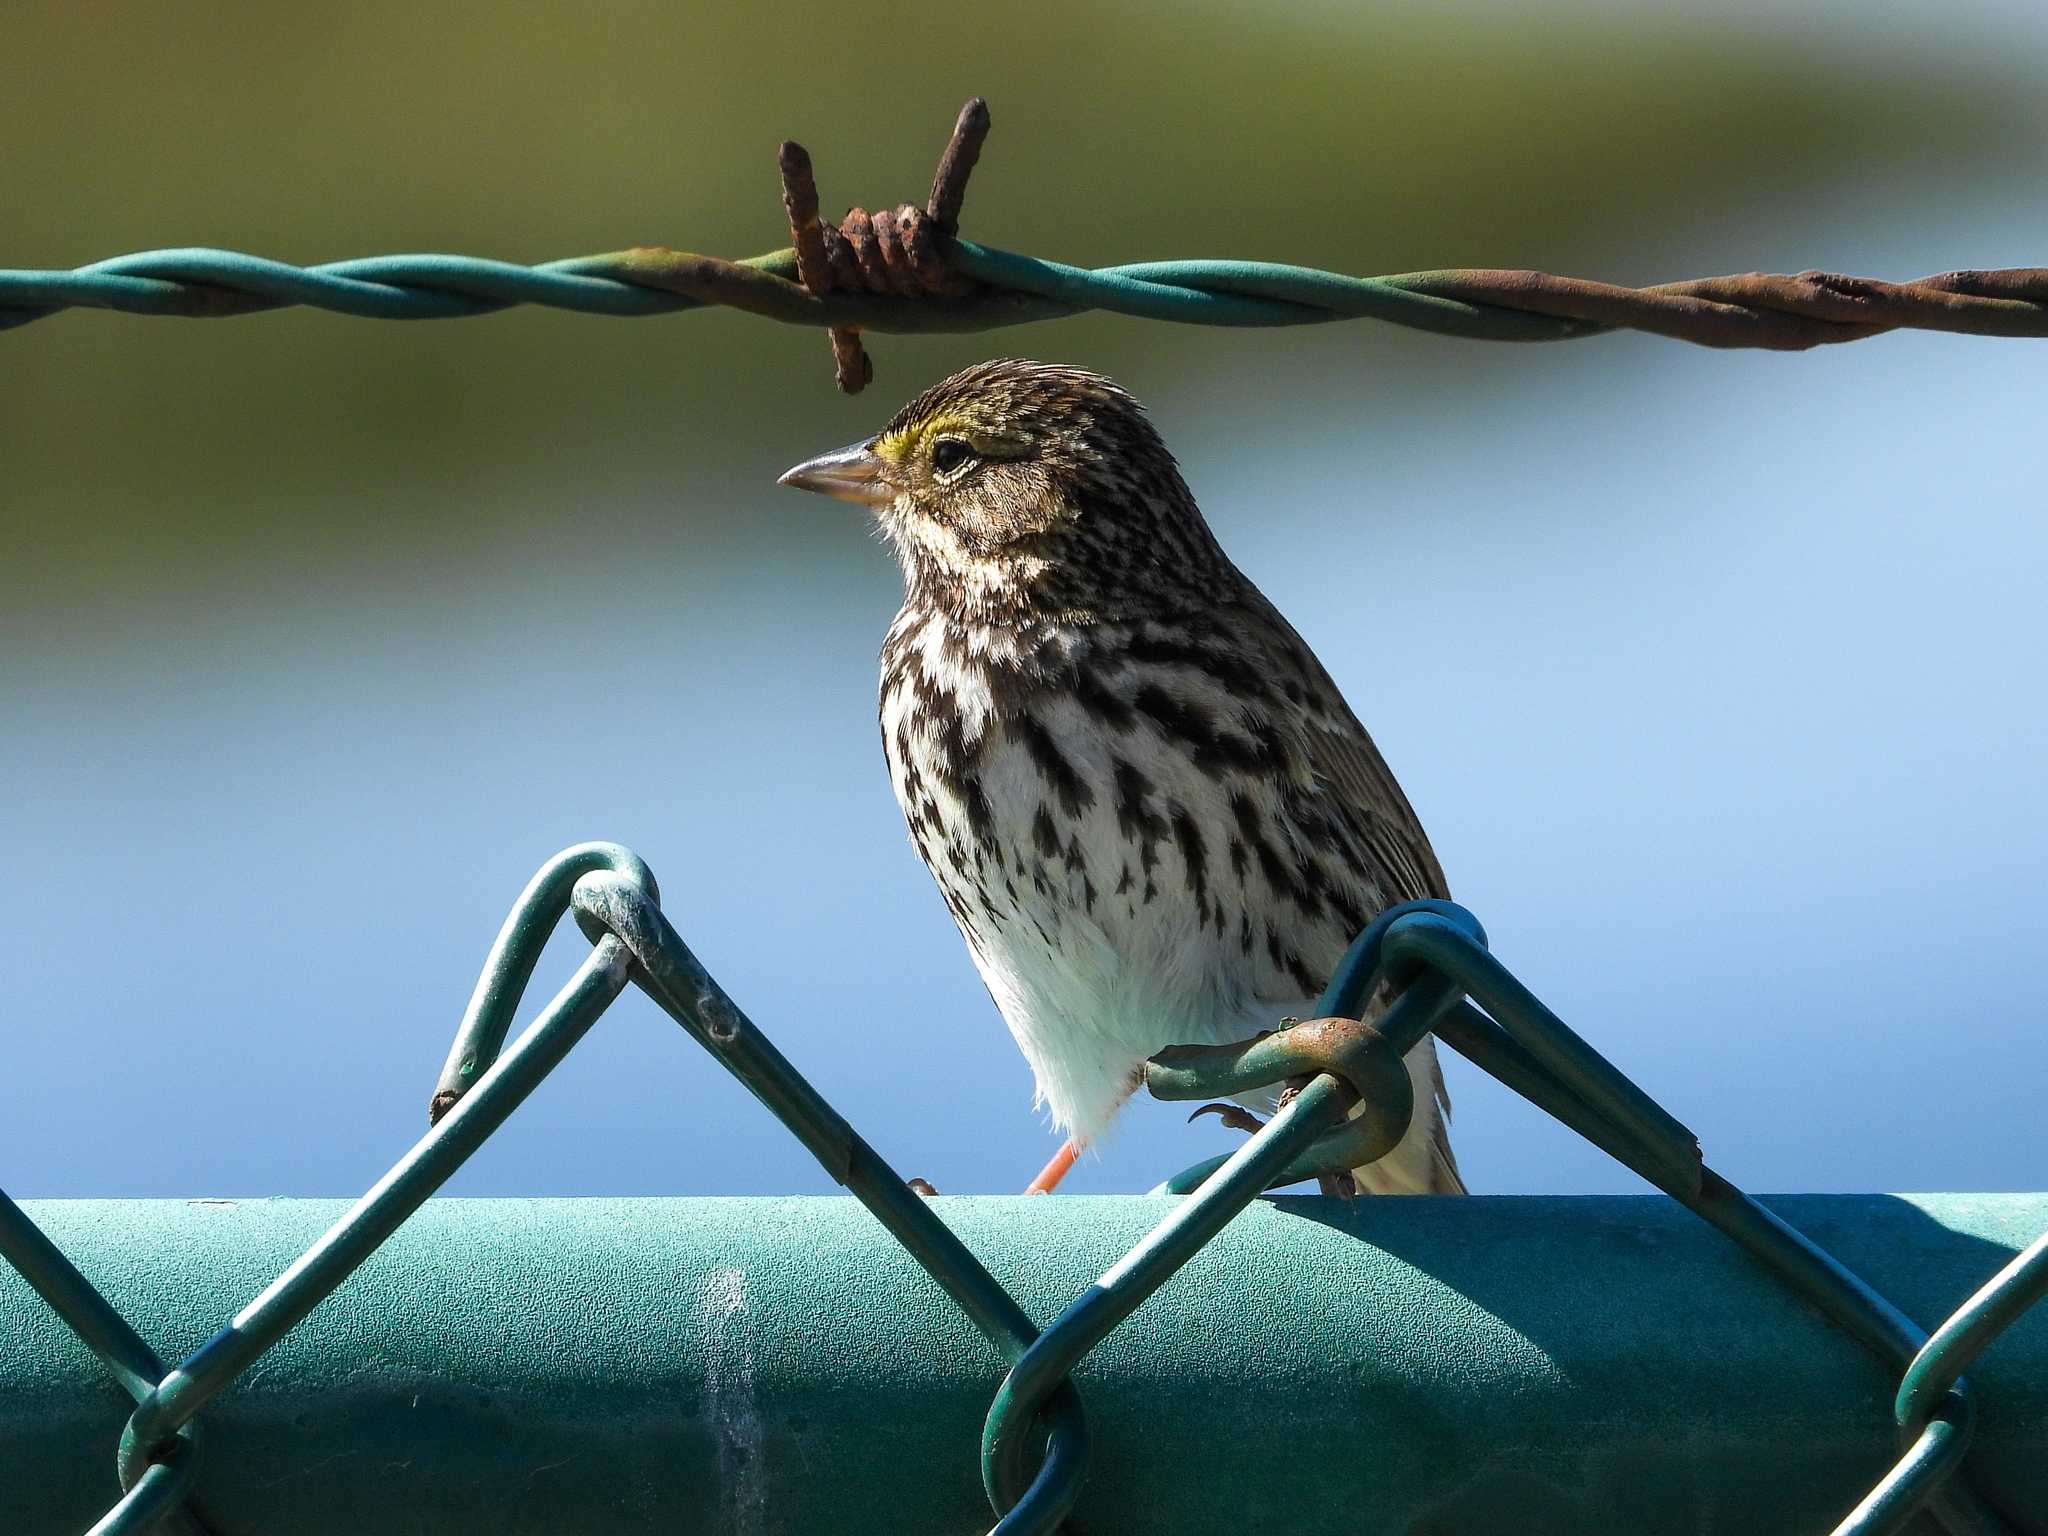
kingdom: Animalia
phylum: Chordata
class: Aves
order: Passeriformes
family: Passerellidae
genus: Passerculus
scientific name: Passerculus sandwichensis
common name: Savannah sparrow
